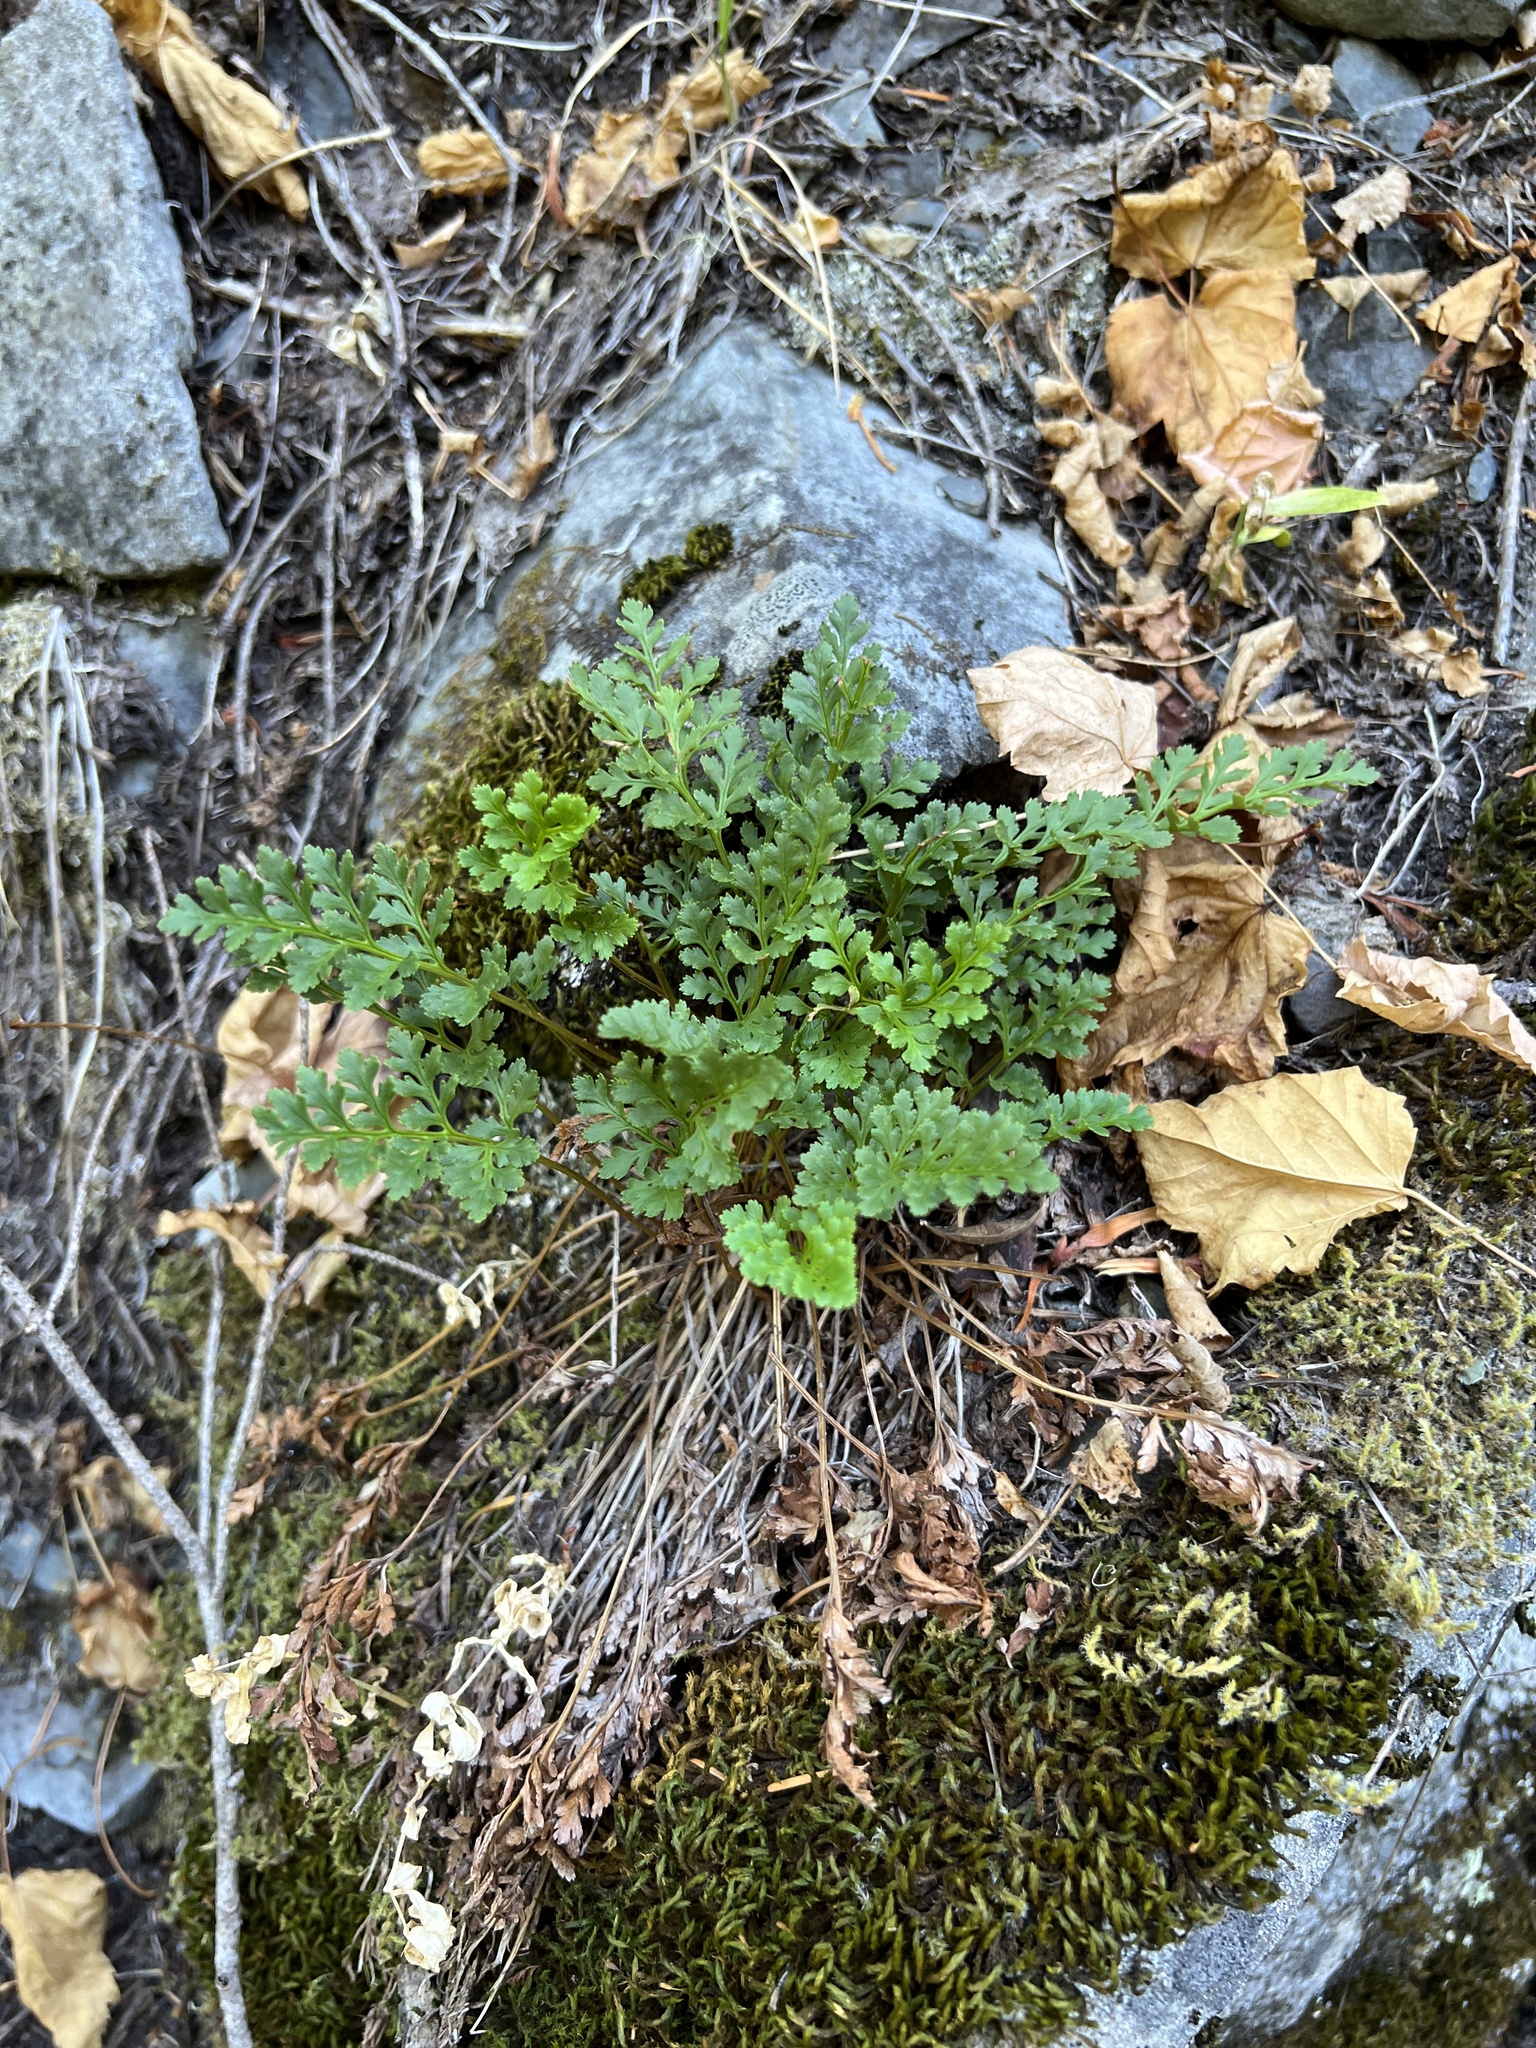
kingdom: Plantae
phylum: Tracheophyta
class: Polypodiopsida
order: Polypodiales
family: Pteridaceae
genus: Cryptogramma
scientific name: Cryptogramma acrostichoides
